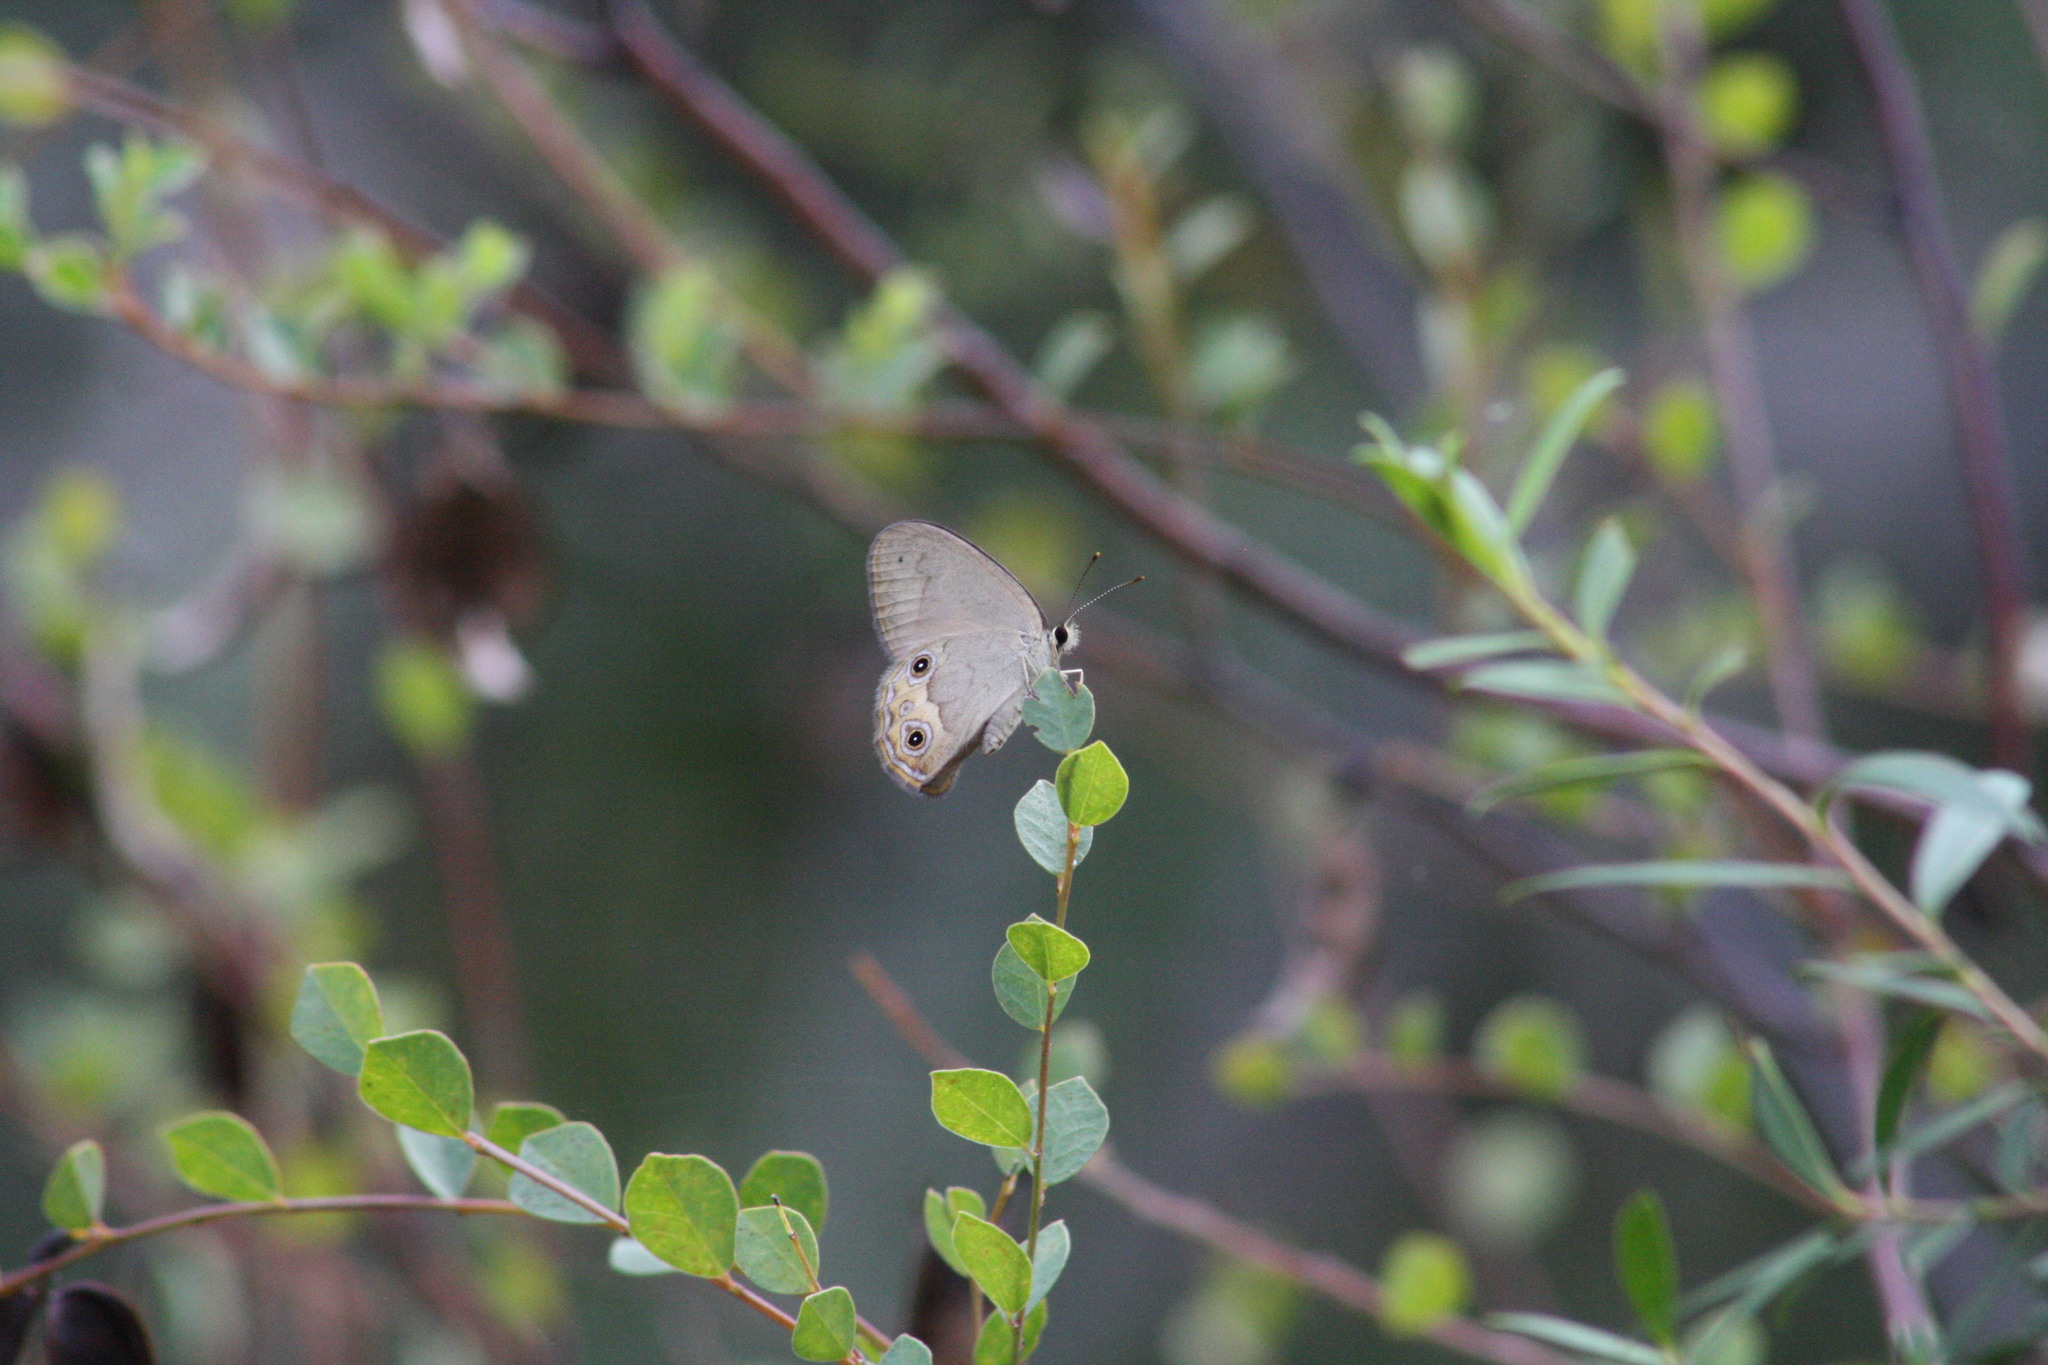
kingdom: Animalia
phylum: Arthropoda
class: Insecta
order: Lepidoptera
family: Nymphalidae
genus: Hypocysta
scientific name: Hypocysta pseudirius
